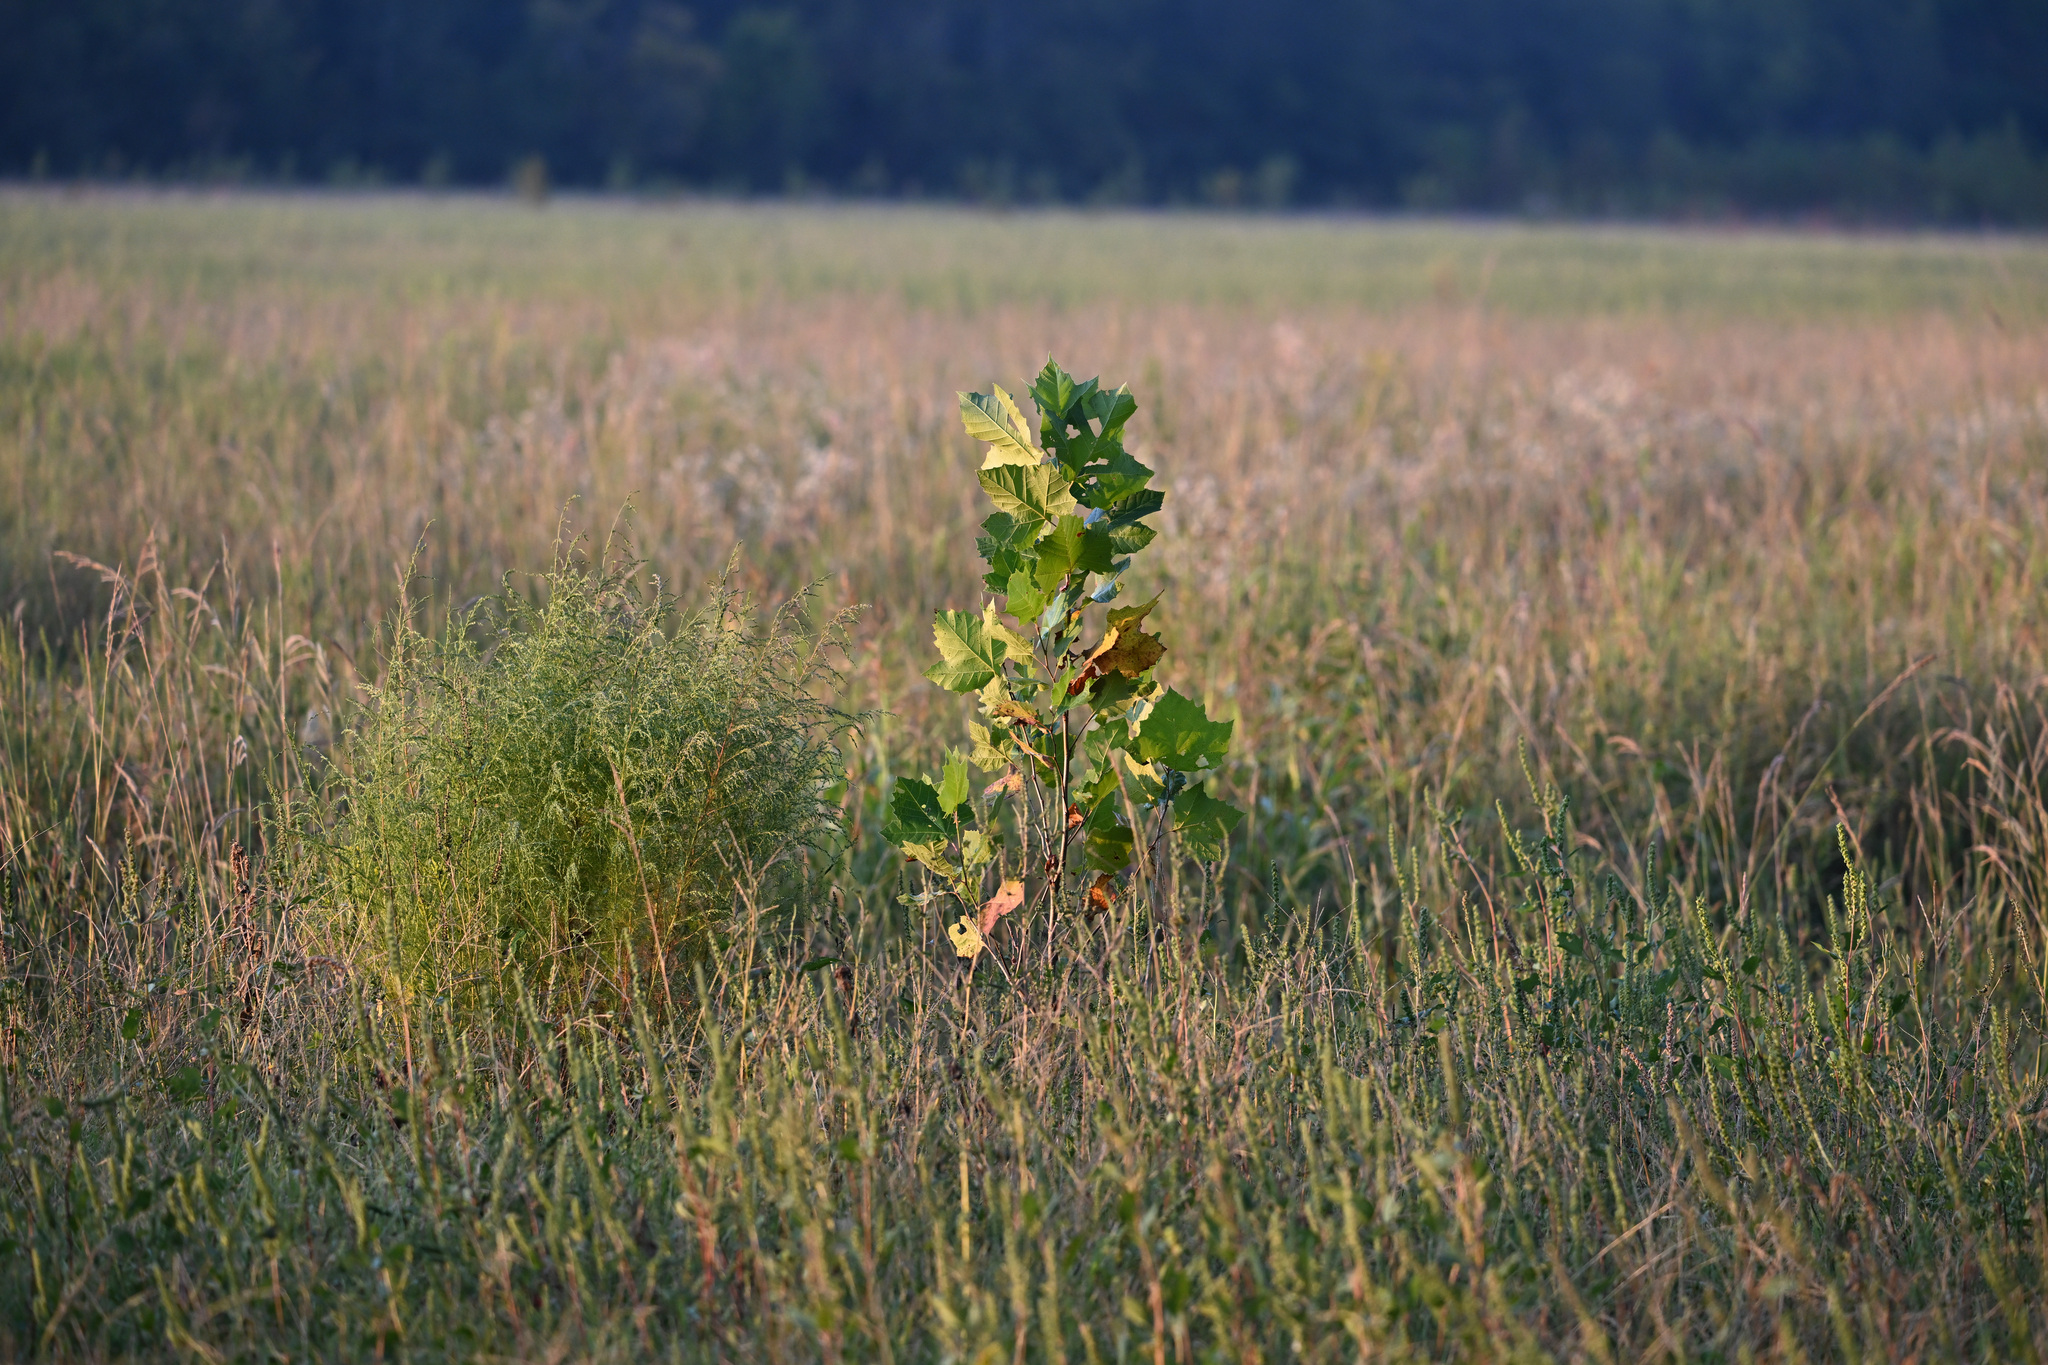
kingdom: Plantae
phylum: Tracheophyta
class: Magnoliopsida
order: Proteales
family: Platanaceae
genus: Platanus
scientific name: Platanus occidentalis
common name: American sycamore
